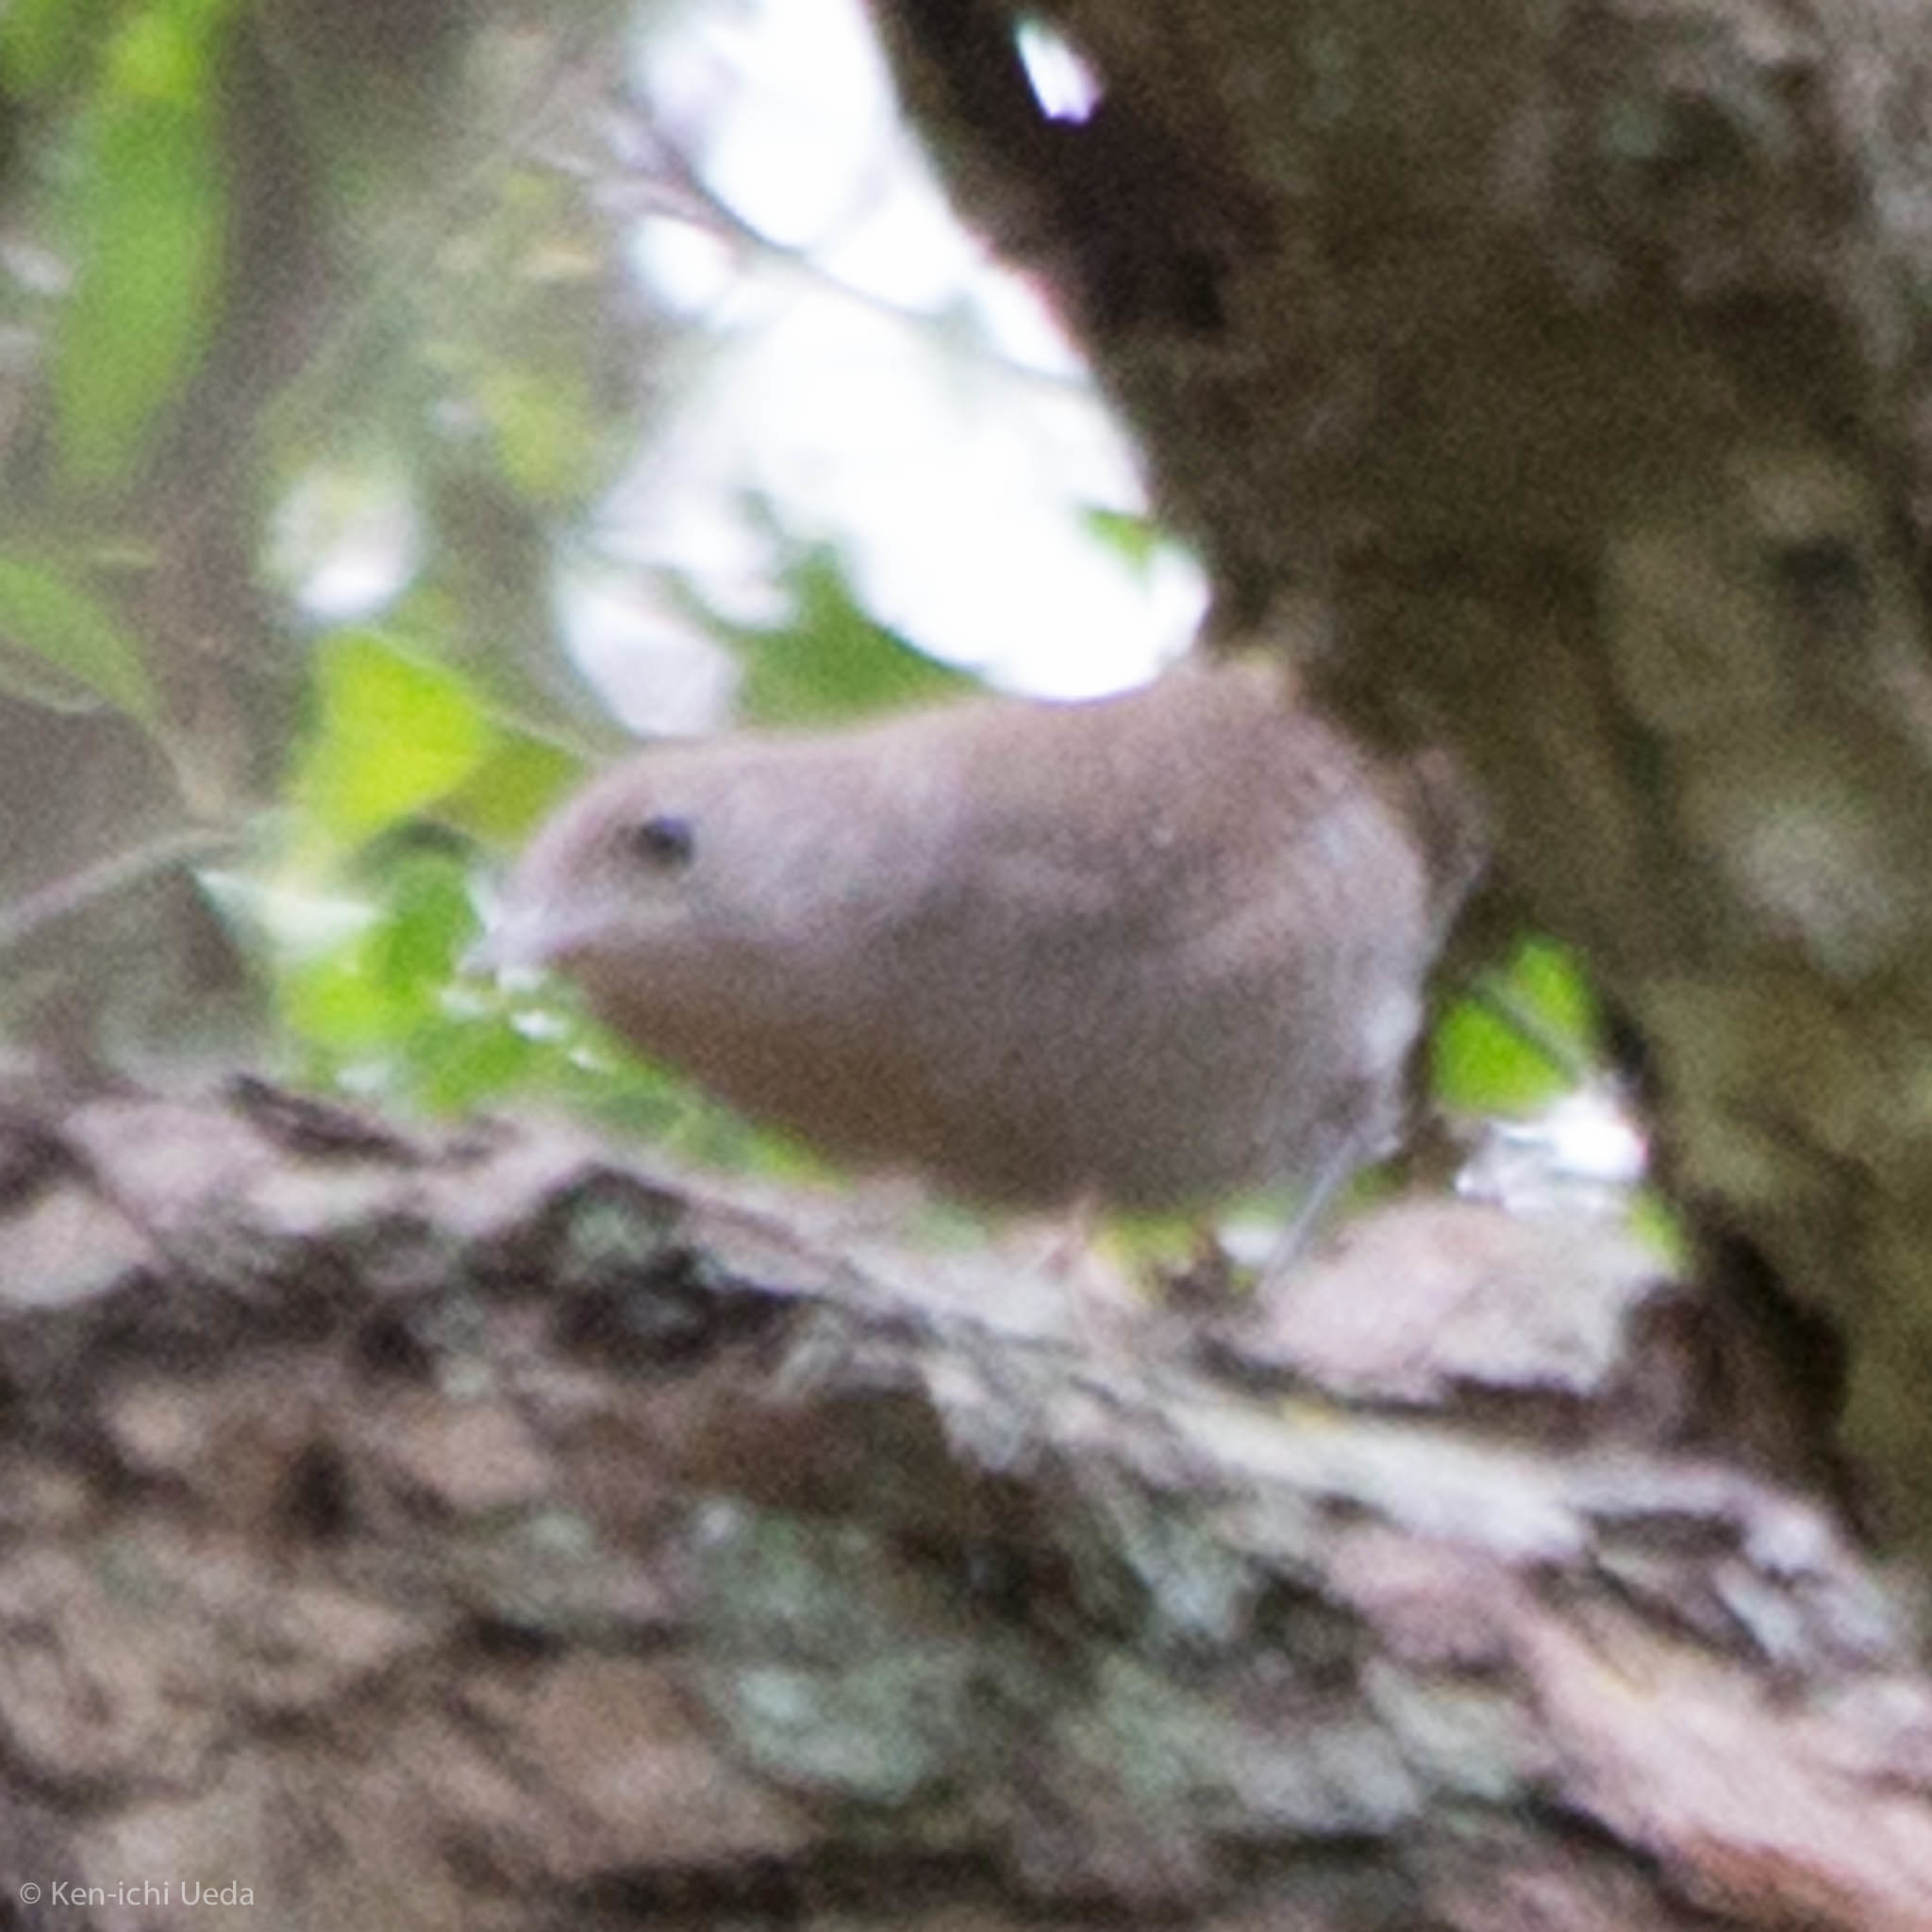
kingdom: Animalia
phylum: Chordata
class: Aves
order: Passeriformes
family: Troglodytidae
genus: Troglodytes
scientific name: Troglodytes aedon
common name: House wren
